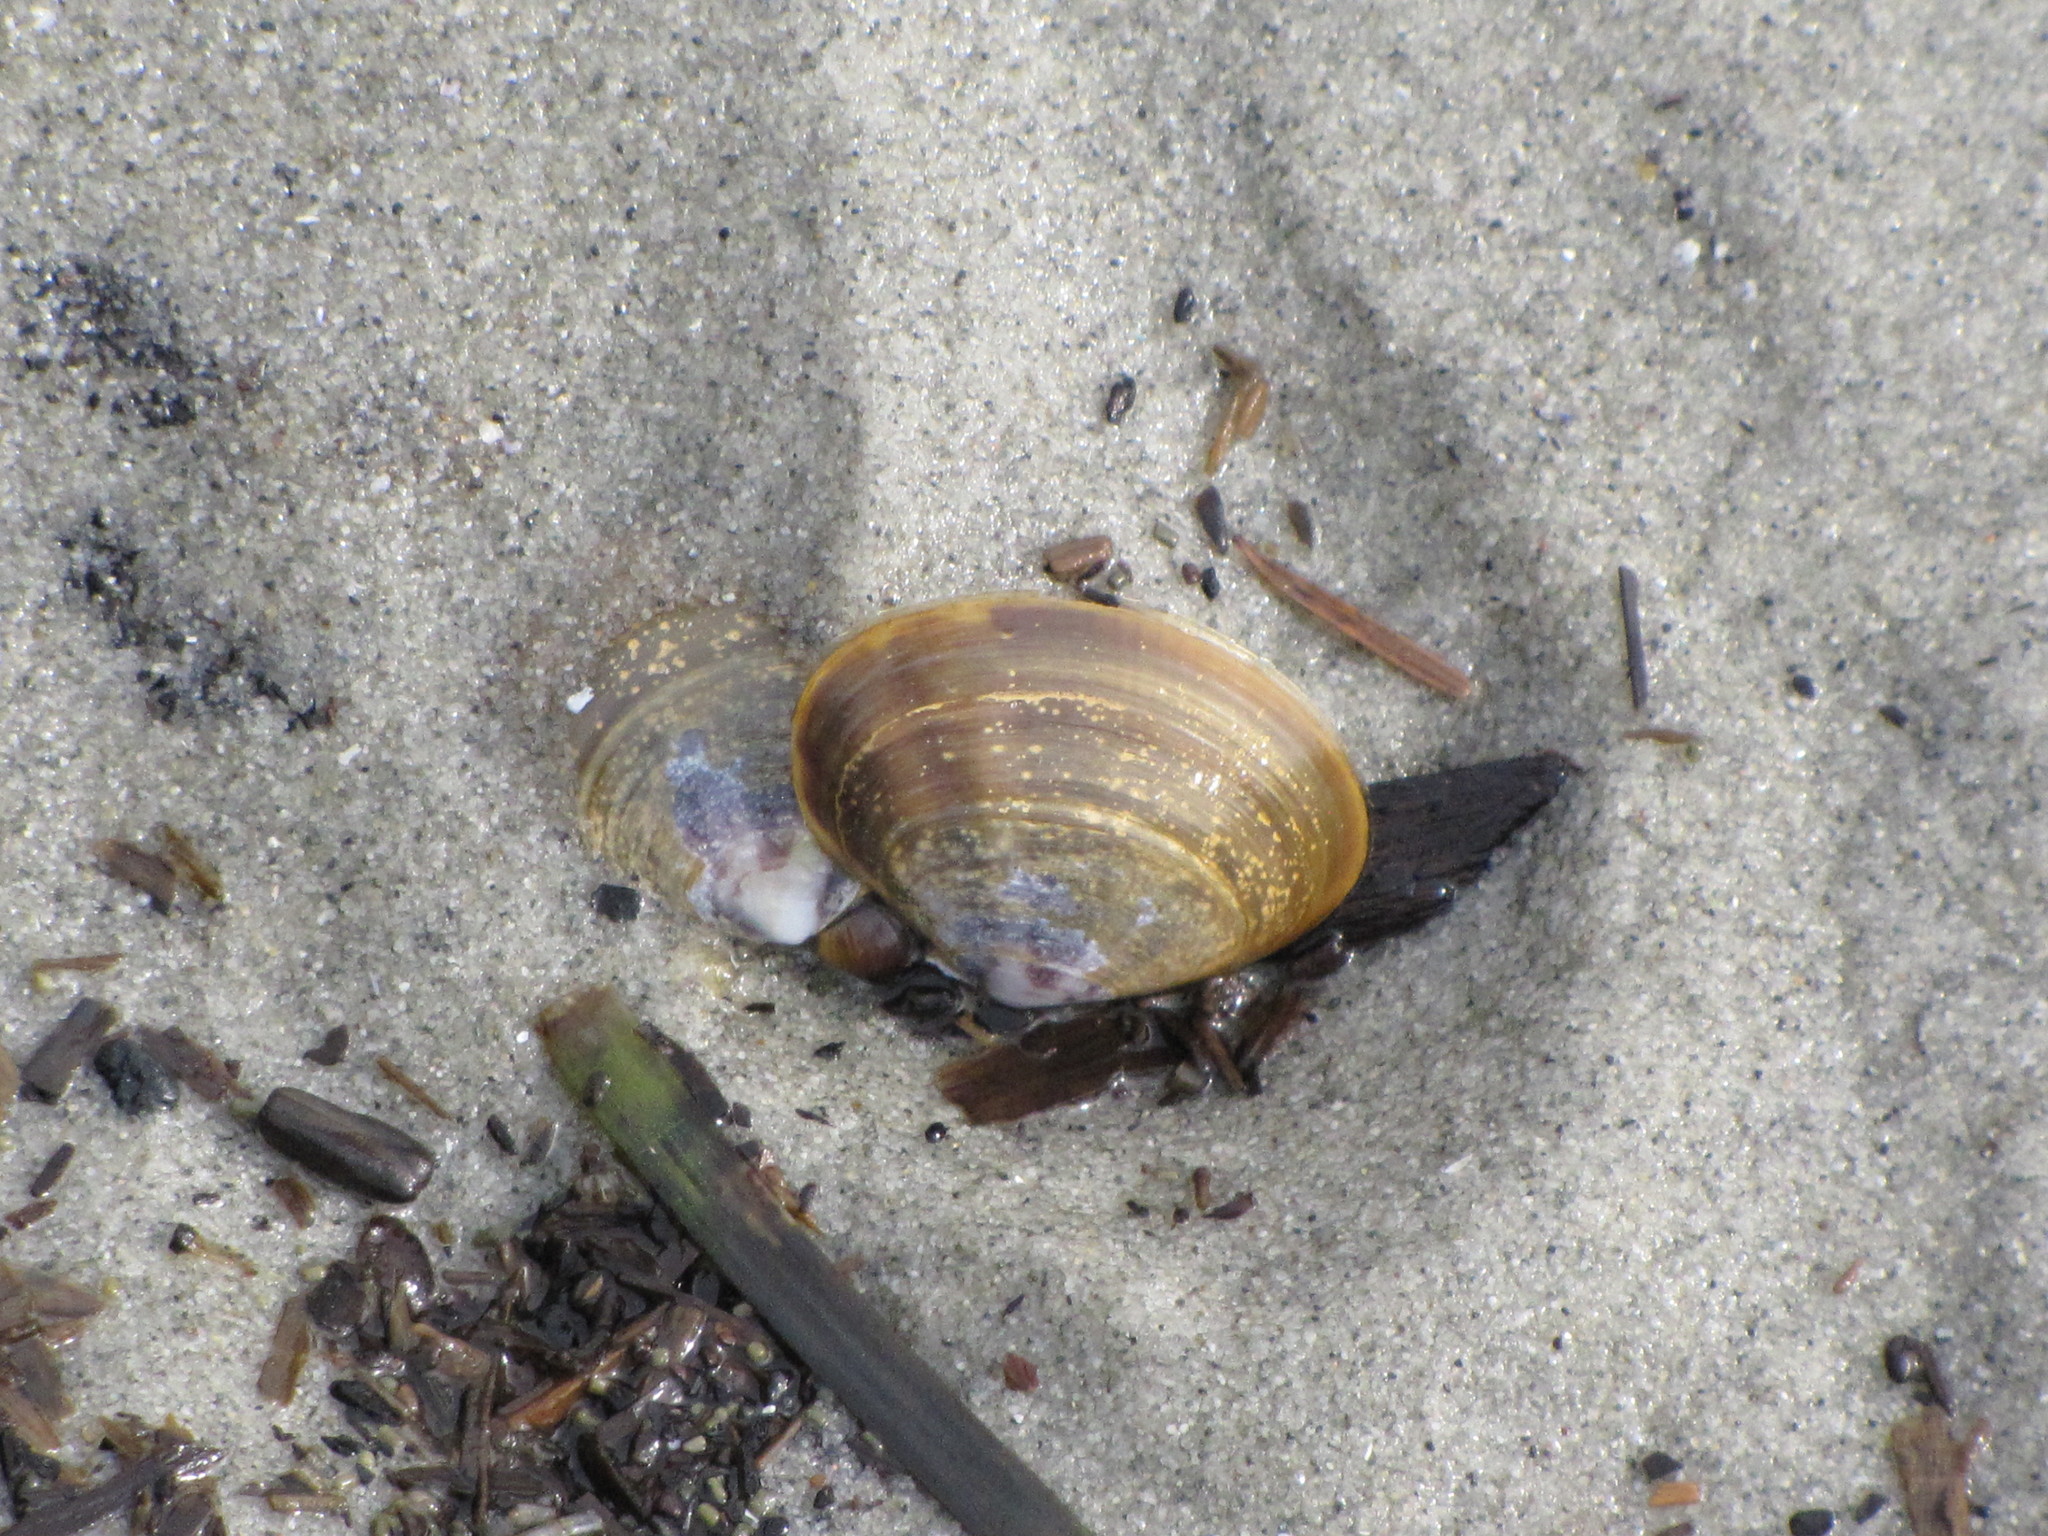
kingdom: Animalia
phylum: Mollusca
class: Bivalvia
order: Cardiida
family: Psammobiidae
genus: Nuttallia
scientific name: Nuttallia obscurata
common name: Purple mahogany-clam
